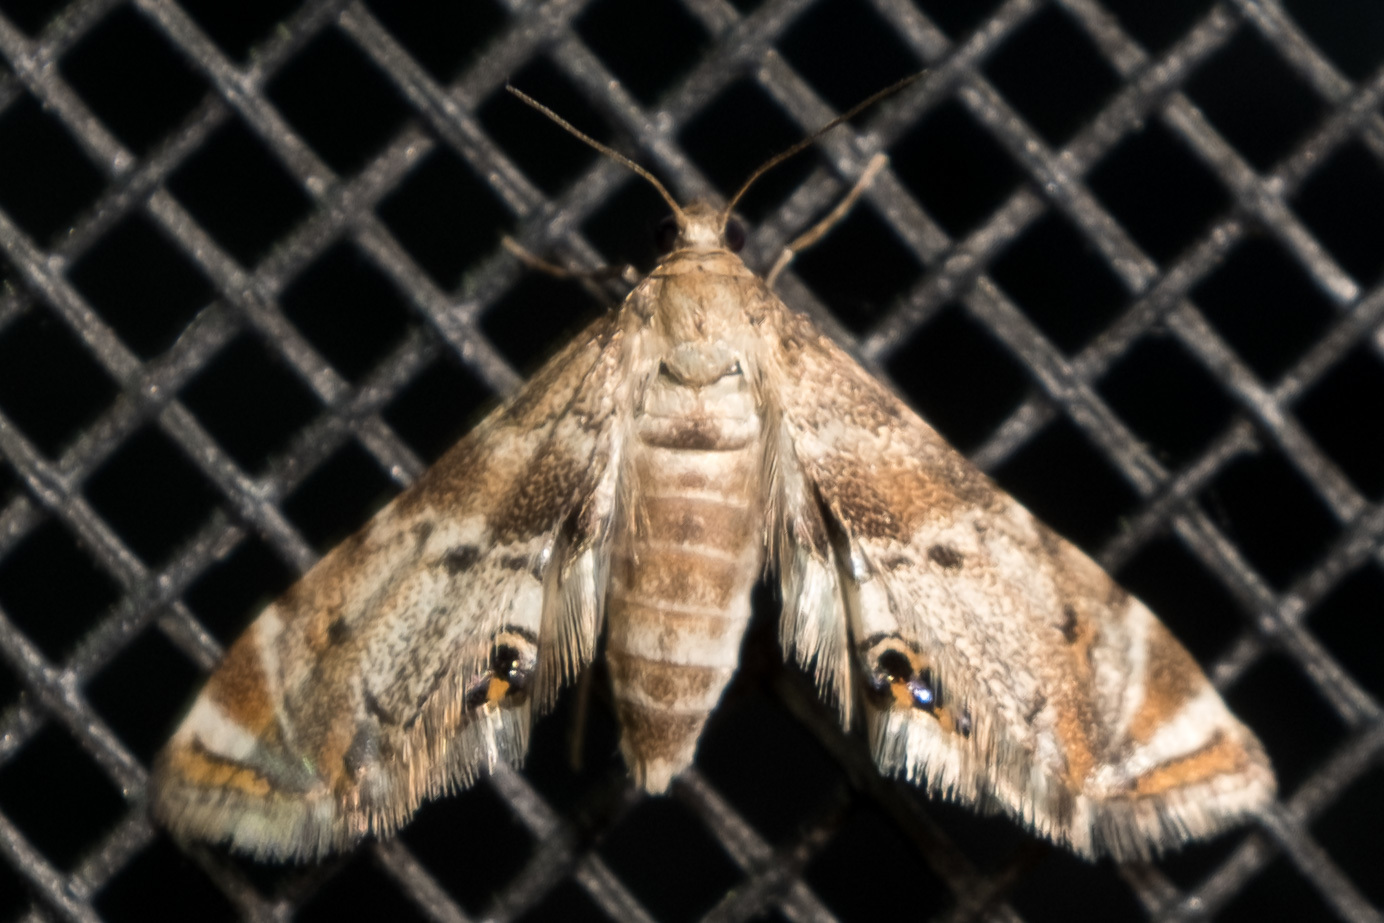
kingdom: Animalia
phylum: Arthropoda
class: Insecta
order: Lepidoptera
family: Crambidae
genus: Petrophila
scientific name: Petrophila fulicalis
